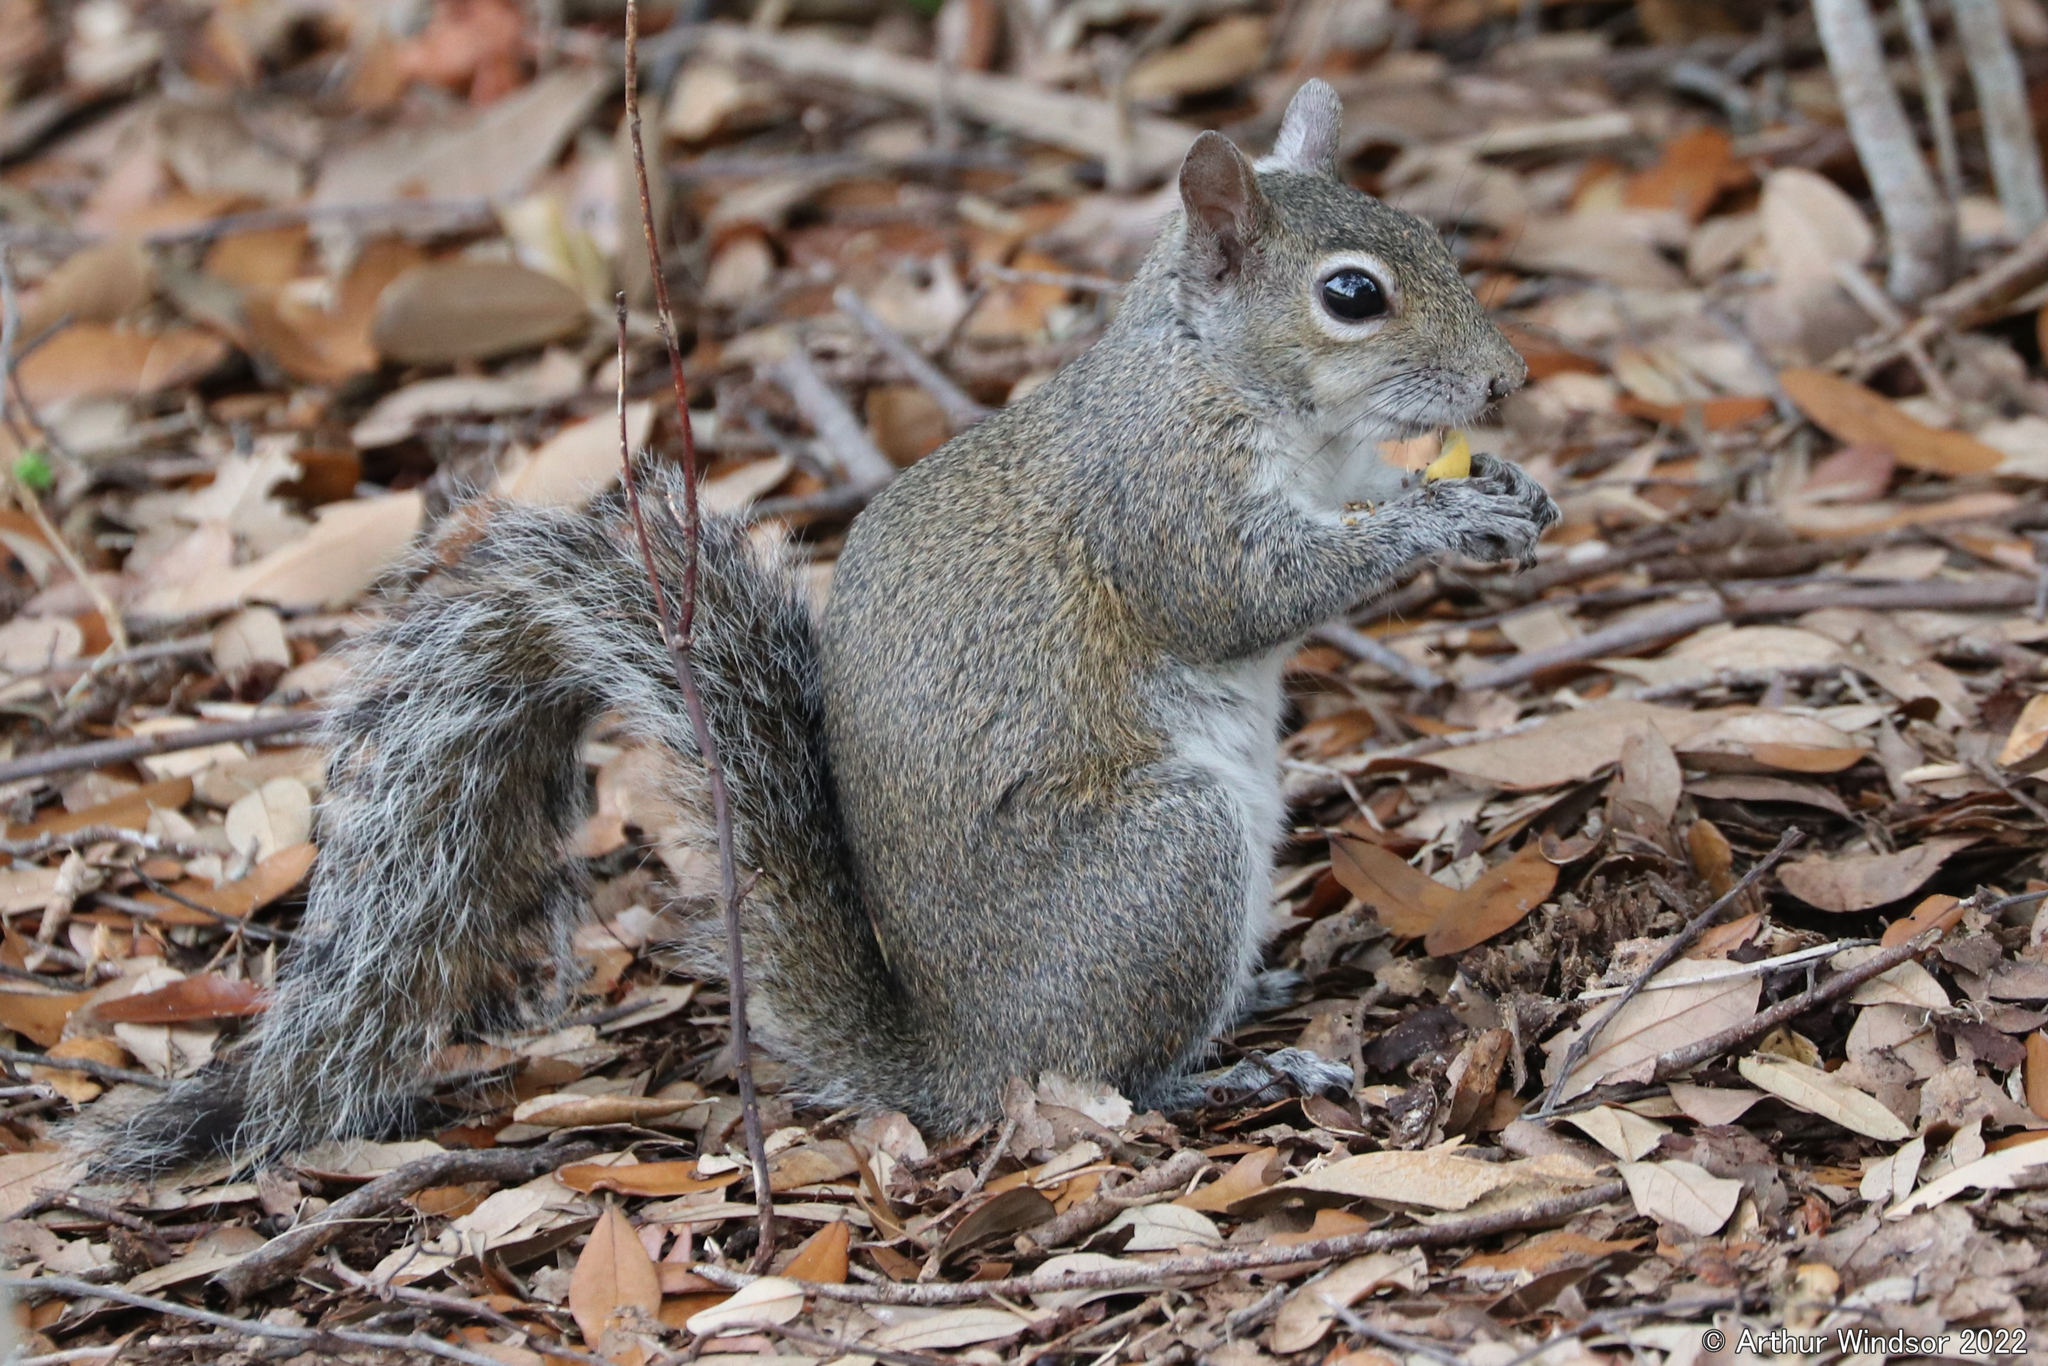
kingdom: Animalia
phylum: Chordata
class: Mammalia
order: Rodentia
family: Sciuridae
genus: Sciurus
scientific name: Sciurus carolinensis
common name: Eastern gray squirrel
